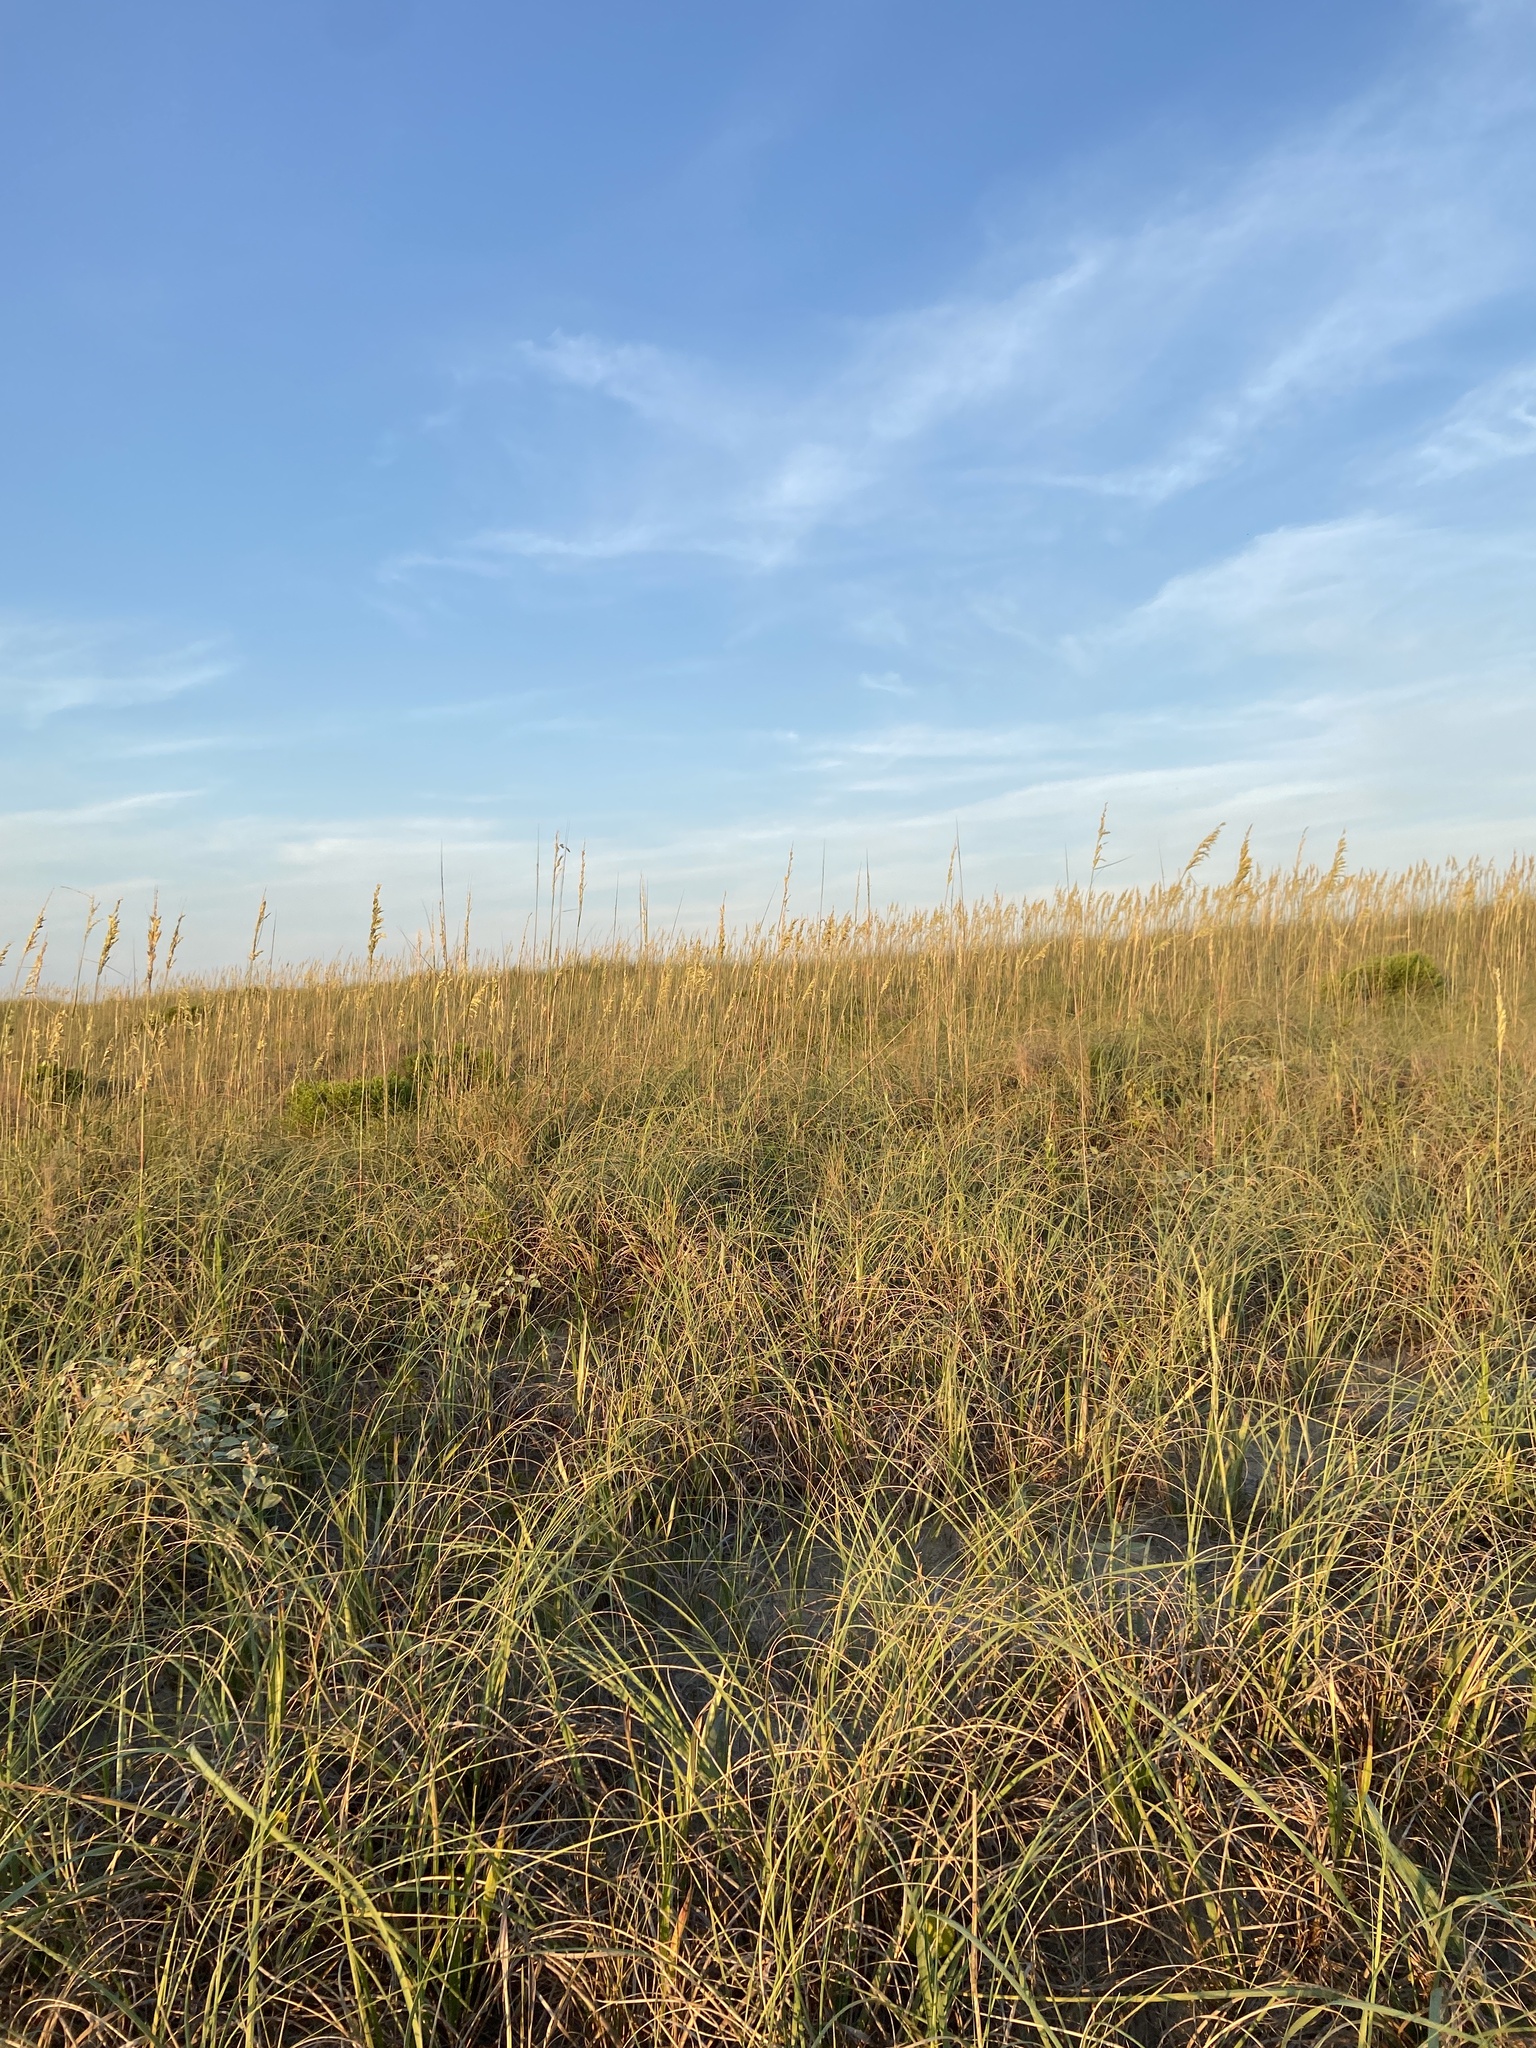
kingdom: Plantae
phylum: Tracheophyta
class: Liliopsida
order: Poales
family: Poaceae
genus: Uniola
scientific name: Uniola paniculata
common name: Seaside-oats
